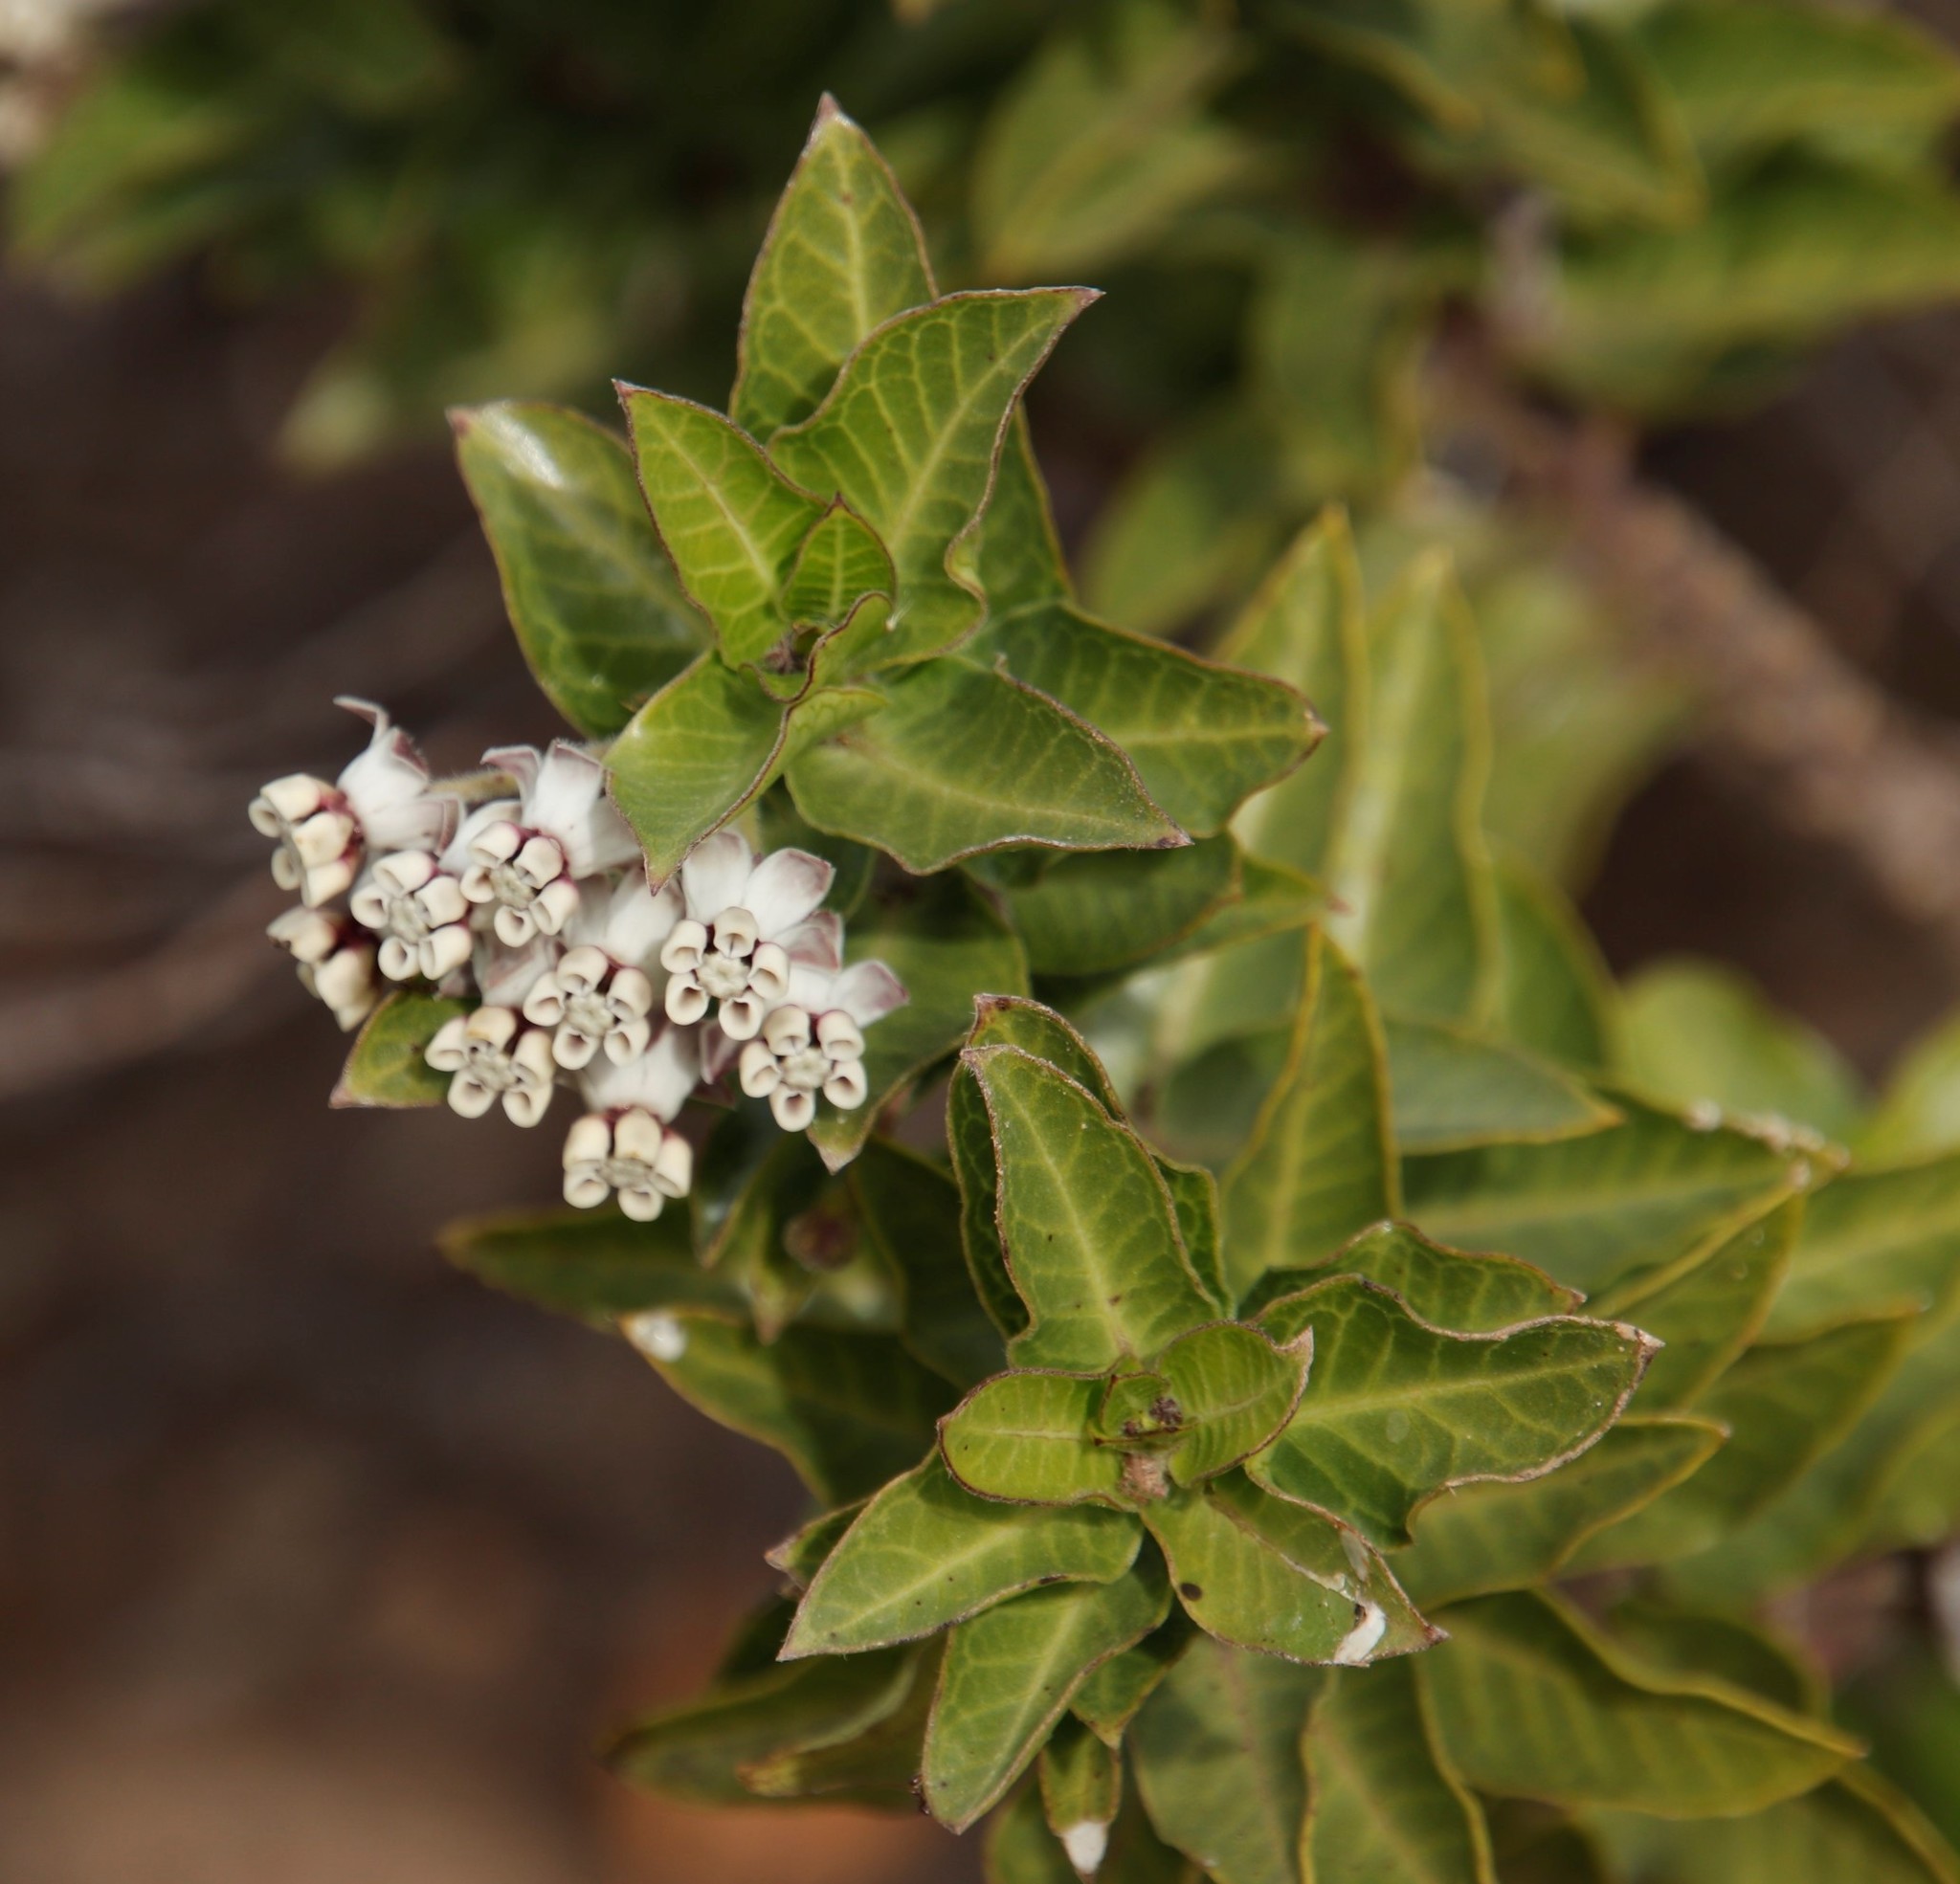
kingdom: Plantae
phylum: Tracheophyta
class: Magnoliopsida
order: Gentianales
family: Apocynaceae
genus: Gomphocarpus
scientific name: Gomphocarpus cancellatus
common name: Wild cotton
